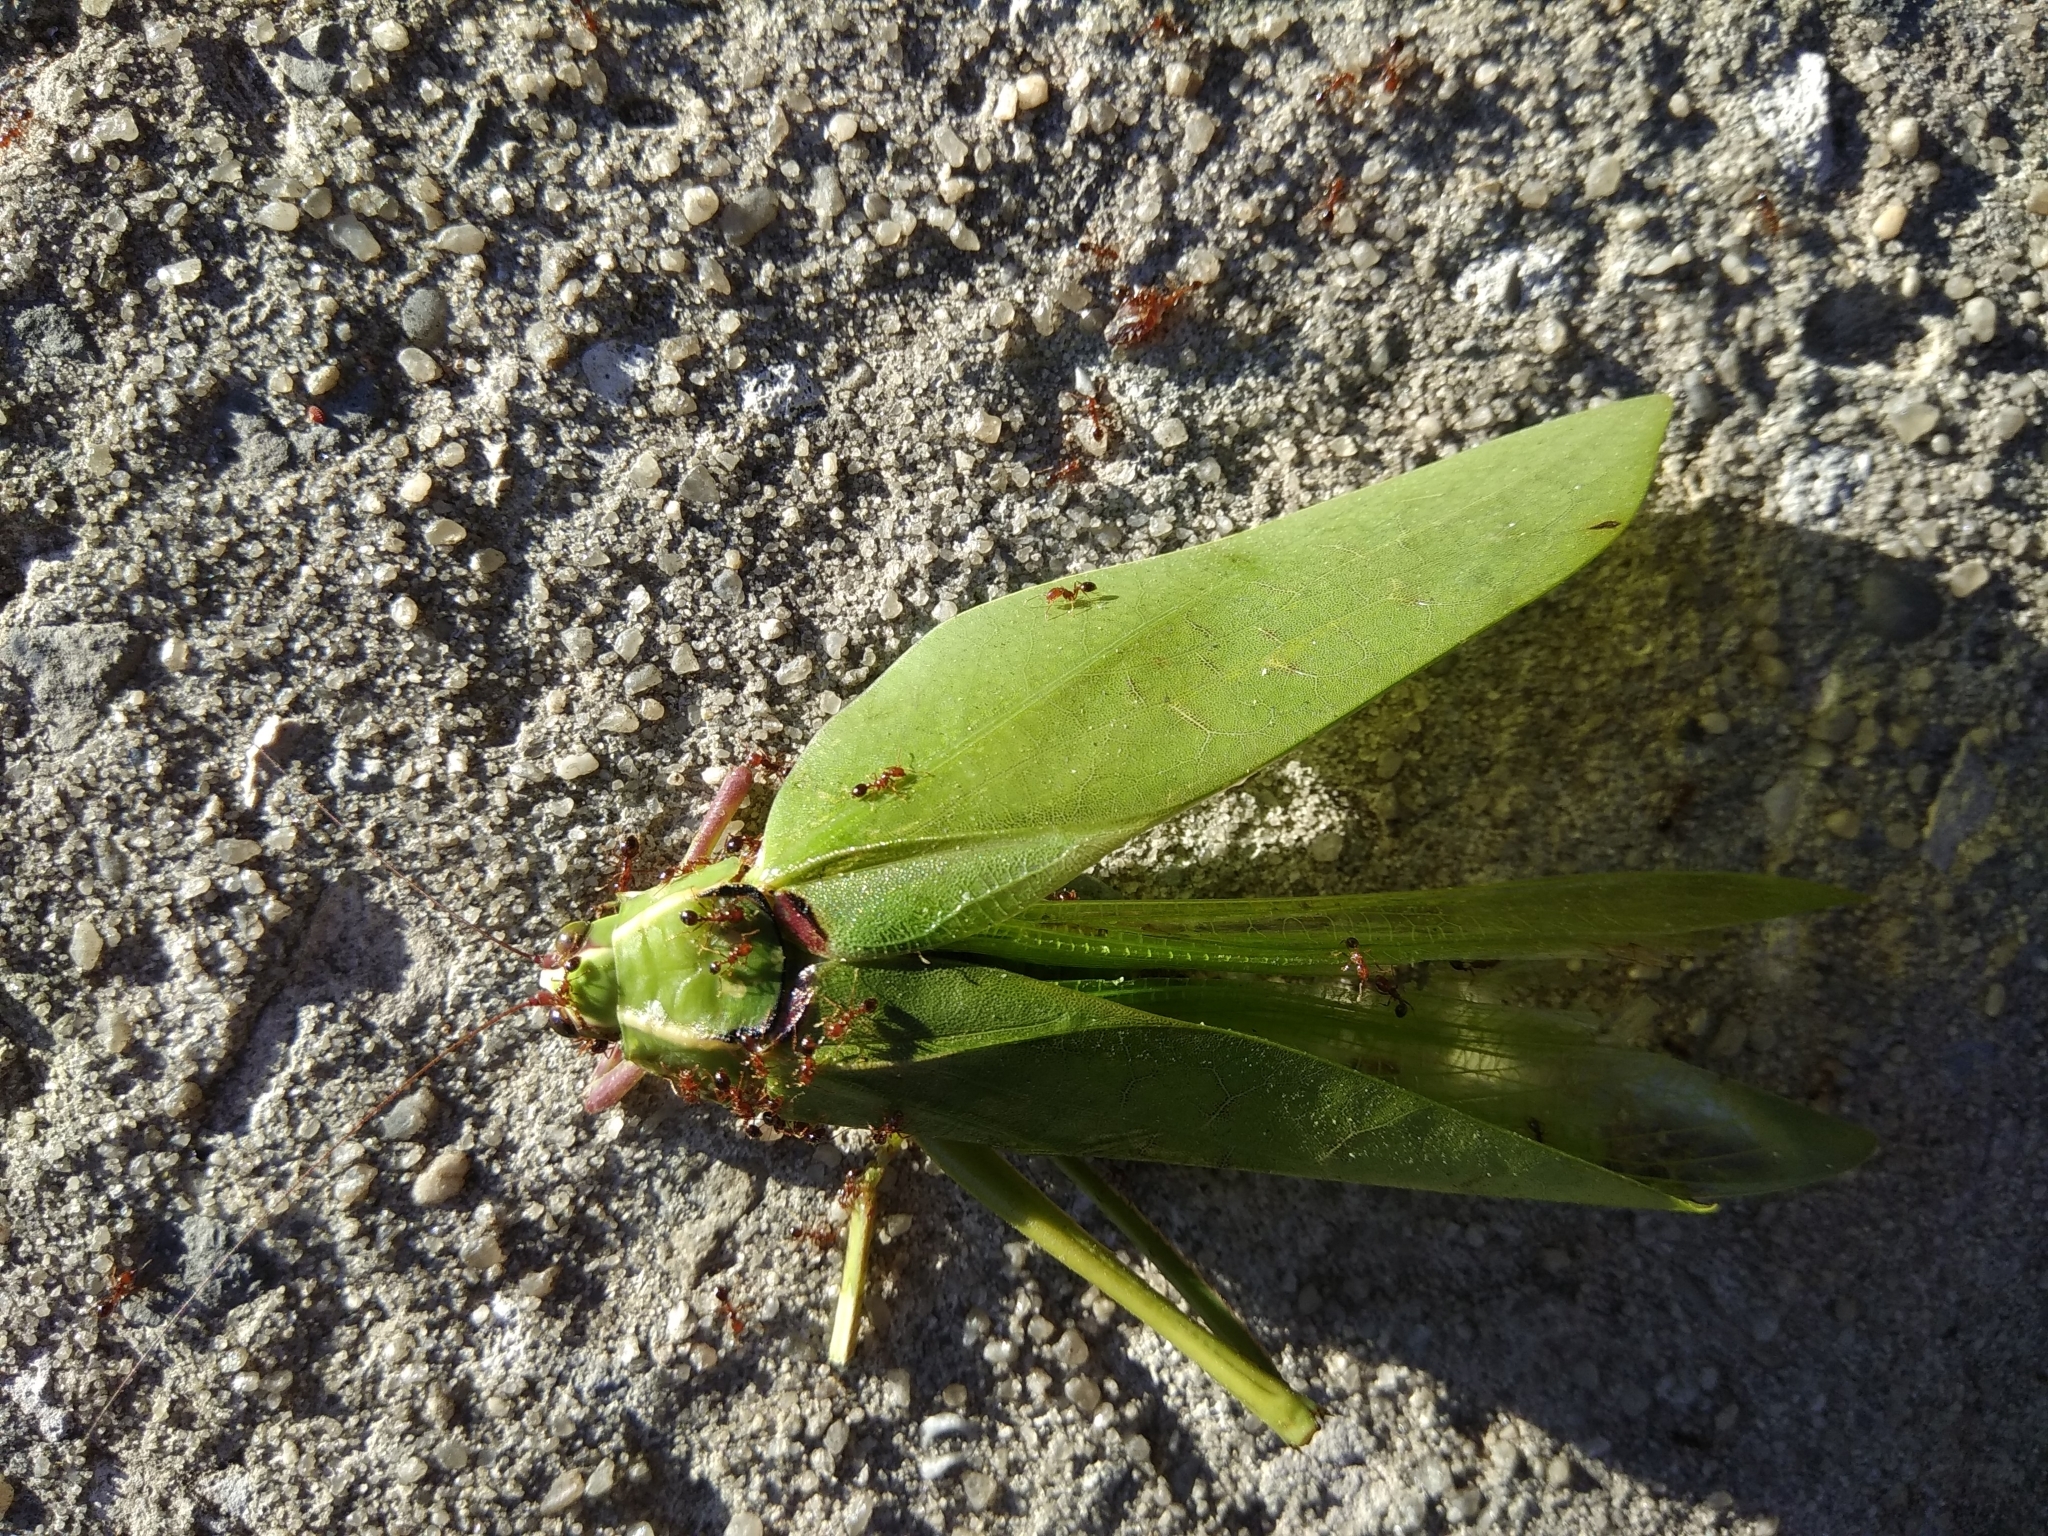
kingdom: Animalia
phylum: Arthropoda
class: Insecta
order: Orthoptera
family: Tettigoniidae
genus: Stilpnochlora
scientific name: Stilpnochlora couloniana
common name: Giant katydid
